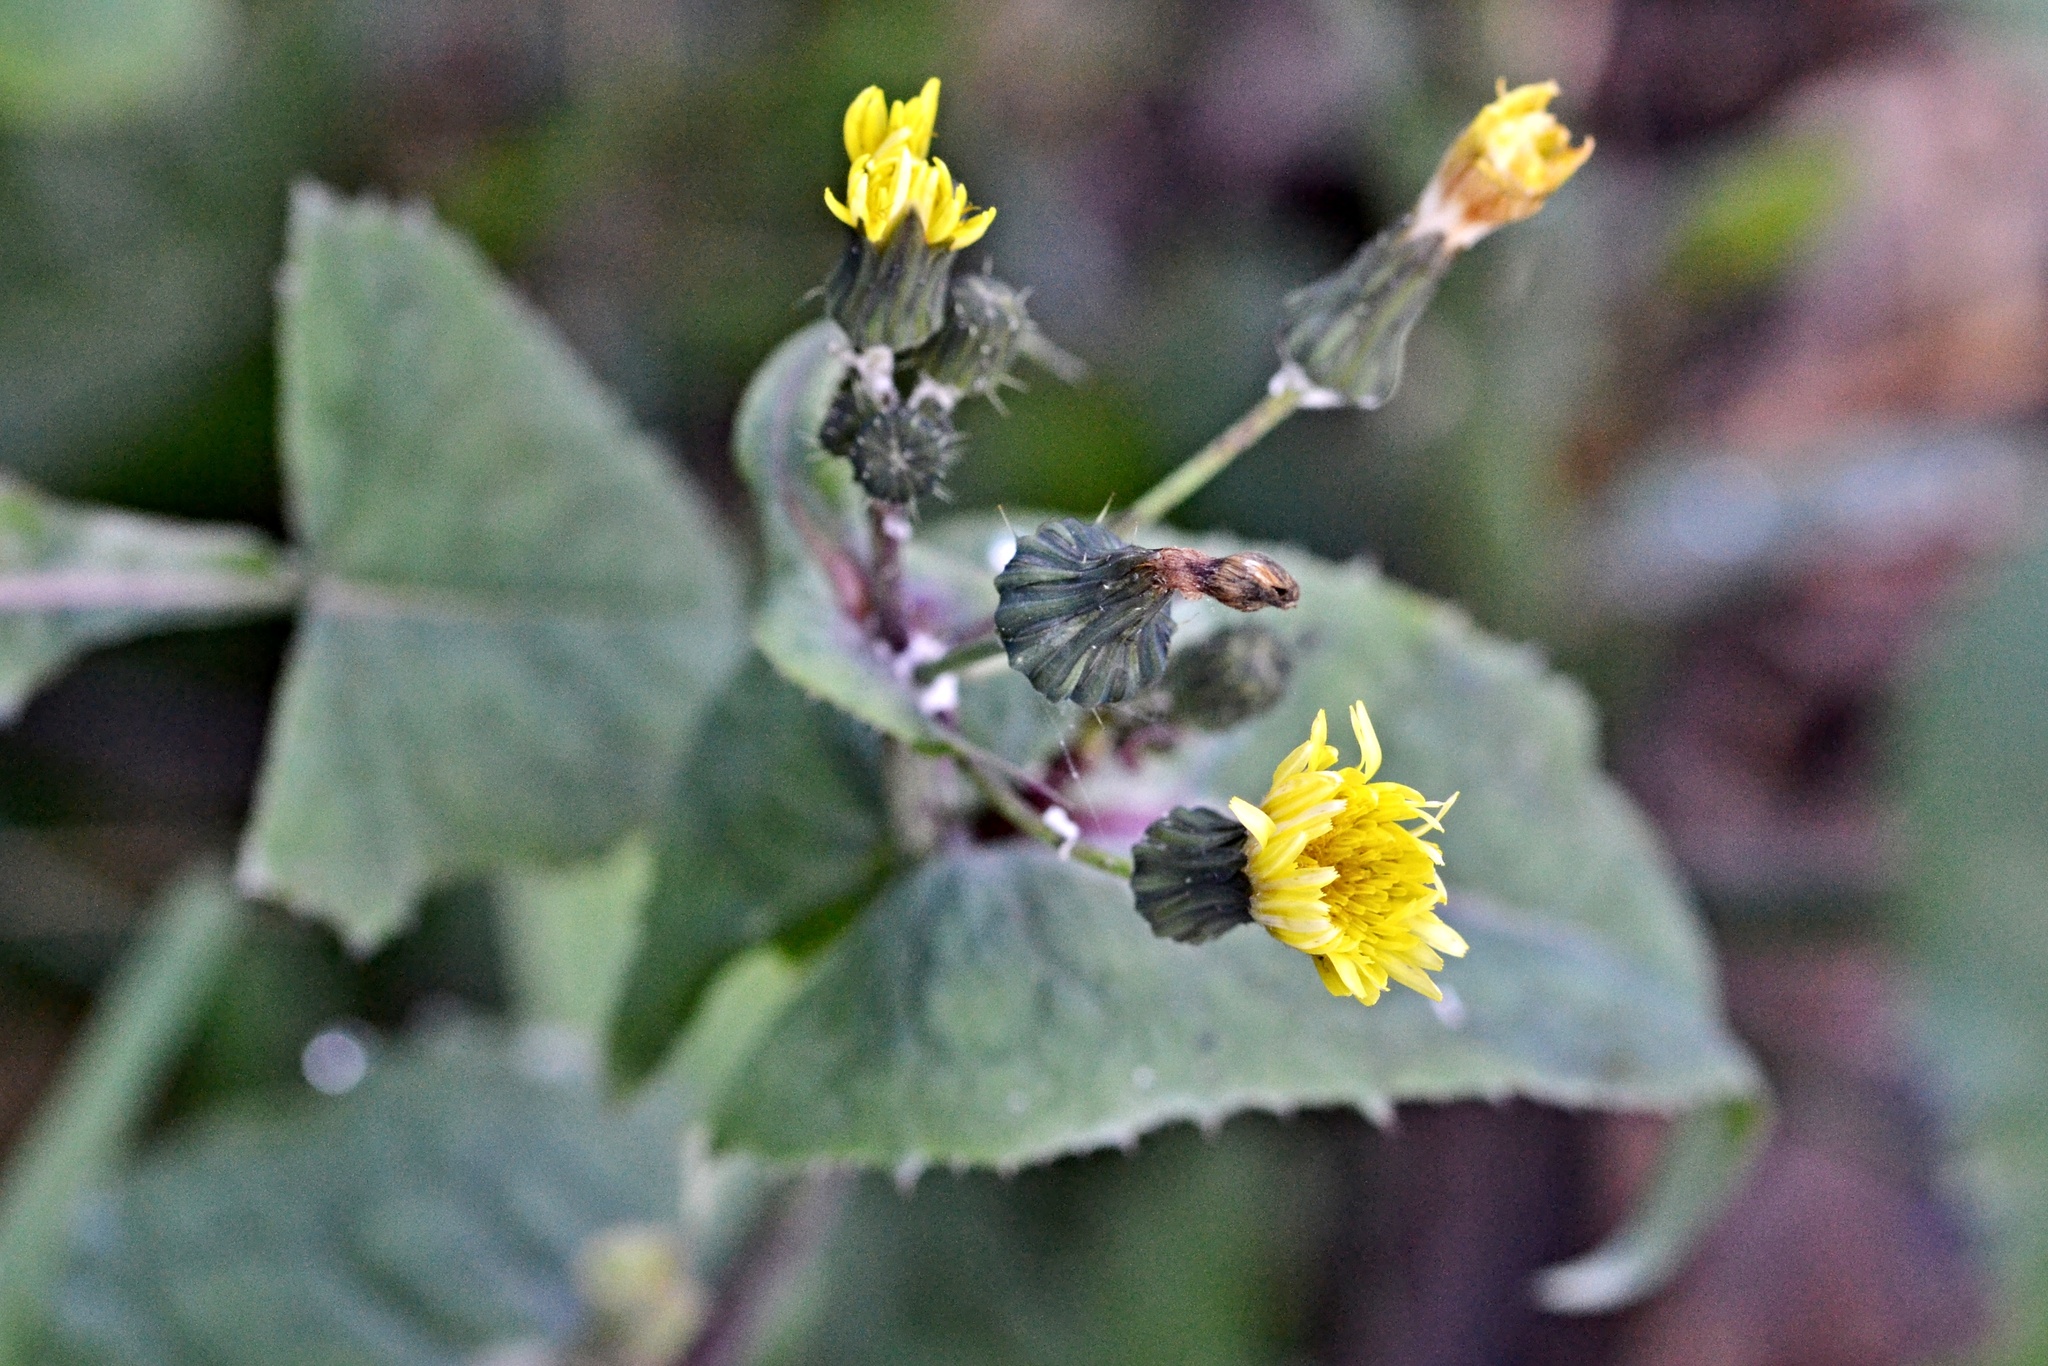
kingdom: Plantae
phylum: Tracheophyta
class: Magnoliopsida
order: Asterales
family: Asteraceae
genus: Sonchus
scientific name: Sonchus oleraceus
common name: Common sowthistle
